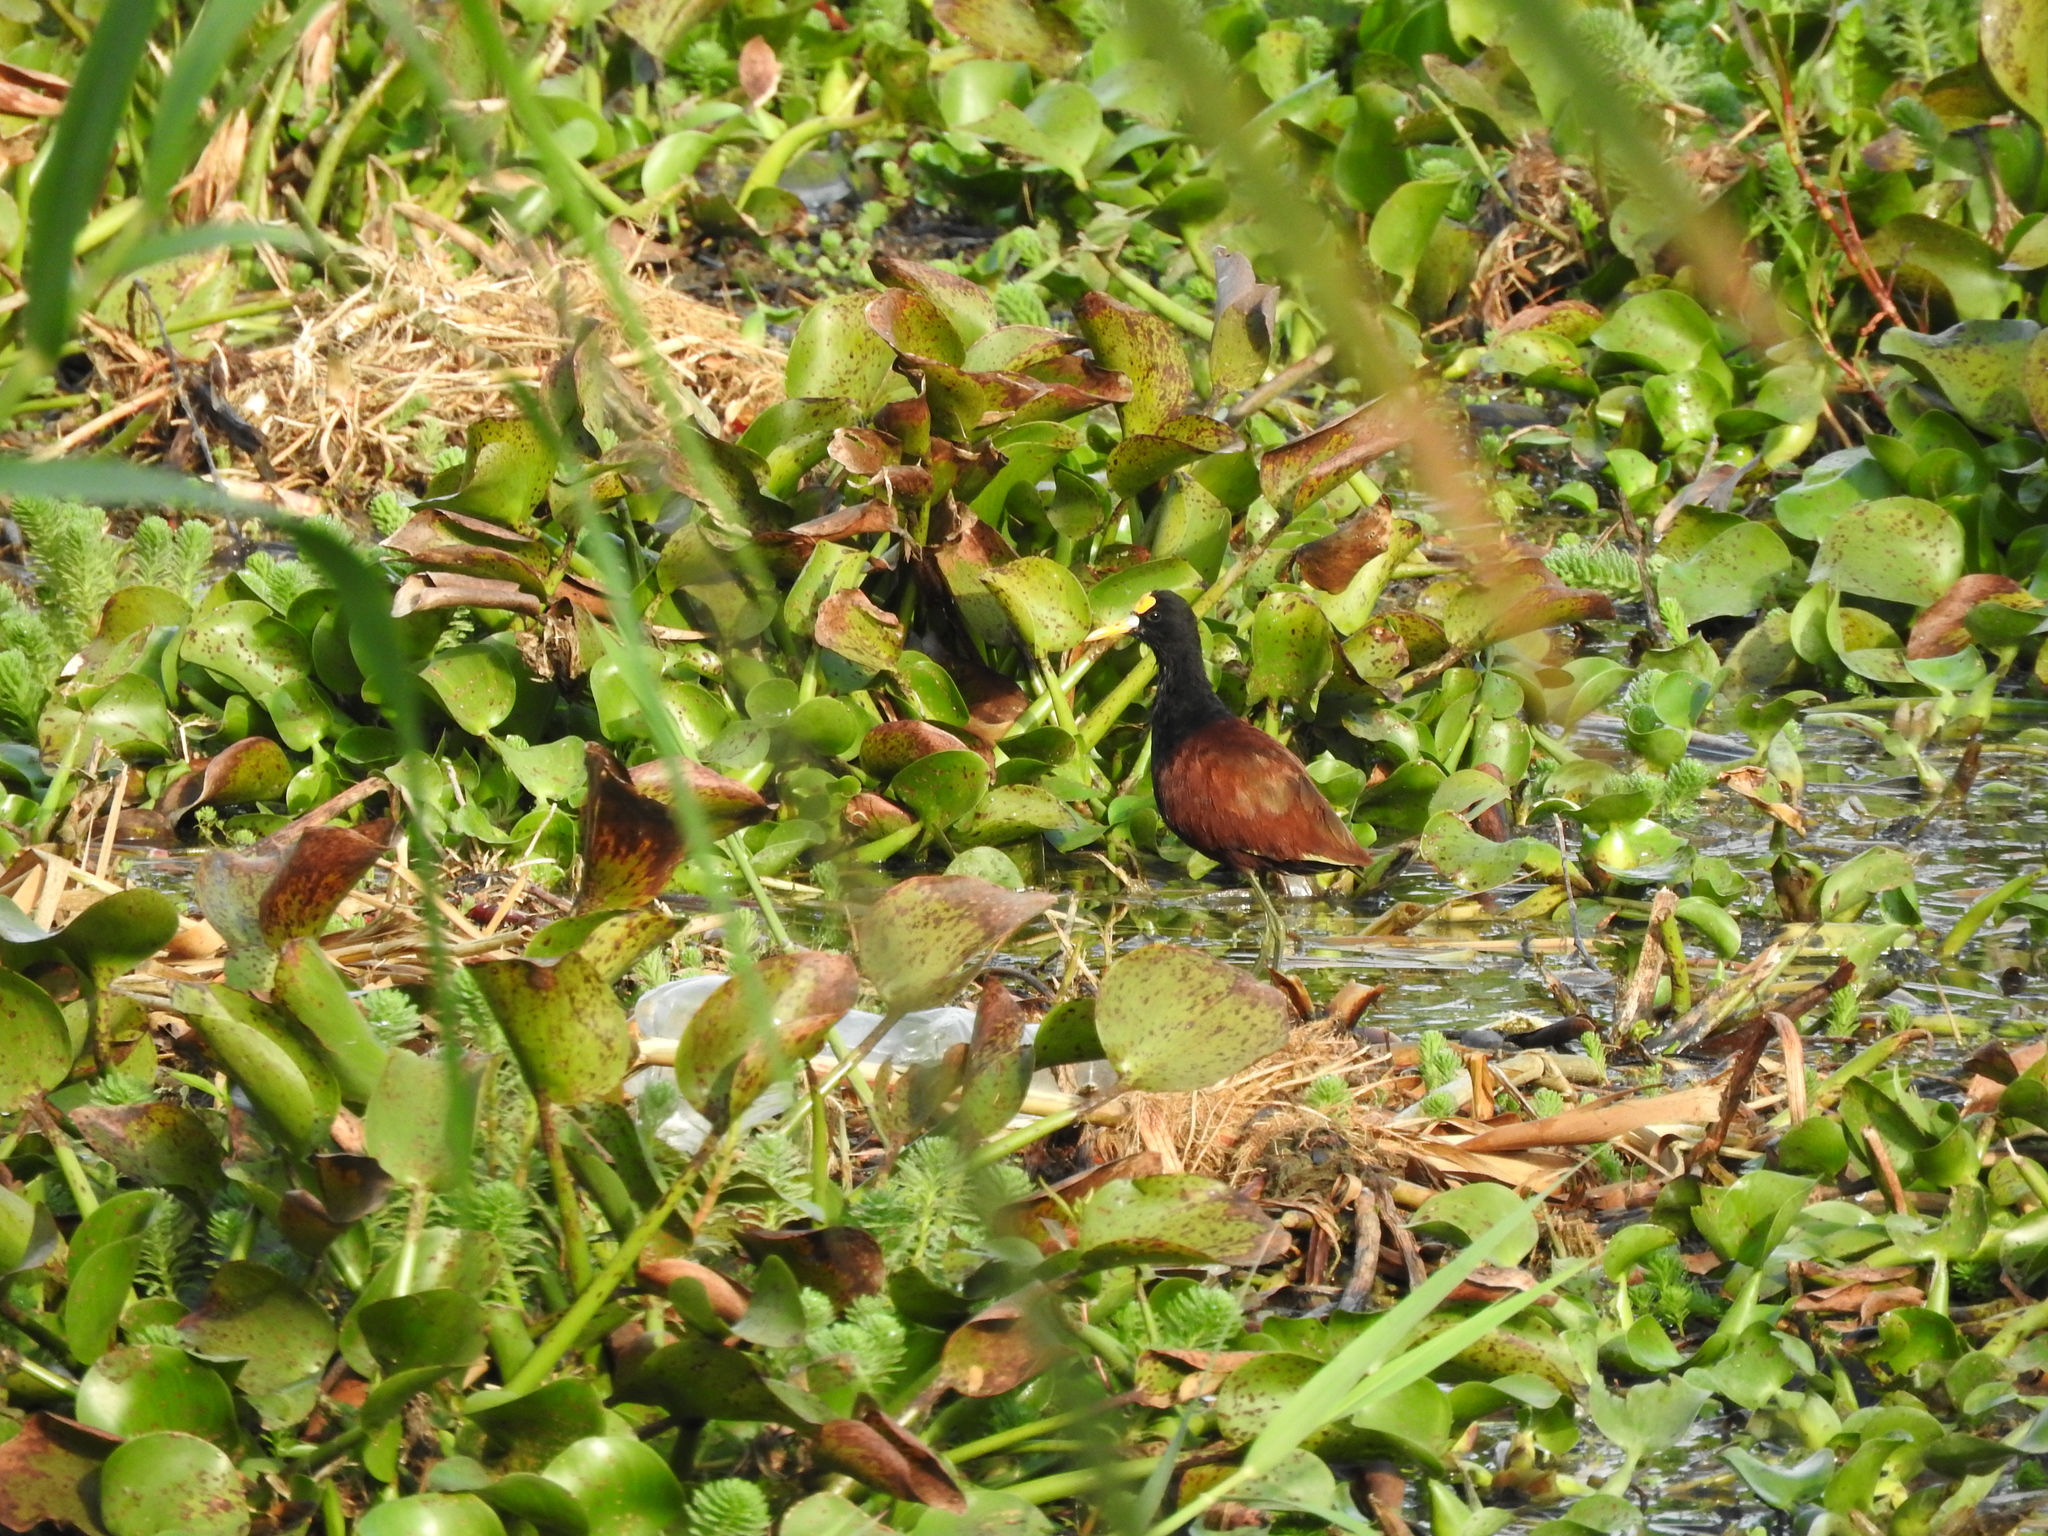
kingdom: Animalia
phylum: Chordata
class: Aves
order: Charadriiformes
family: Jacanidae
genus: Jacana
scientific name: Jacana spinosa
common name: Northern jacana
